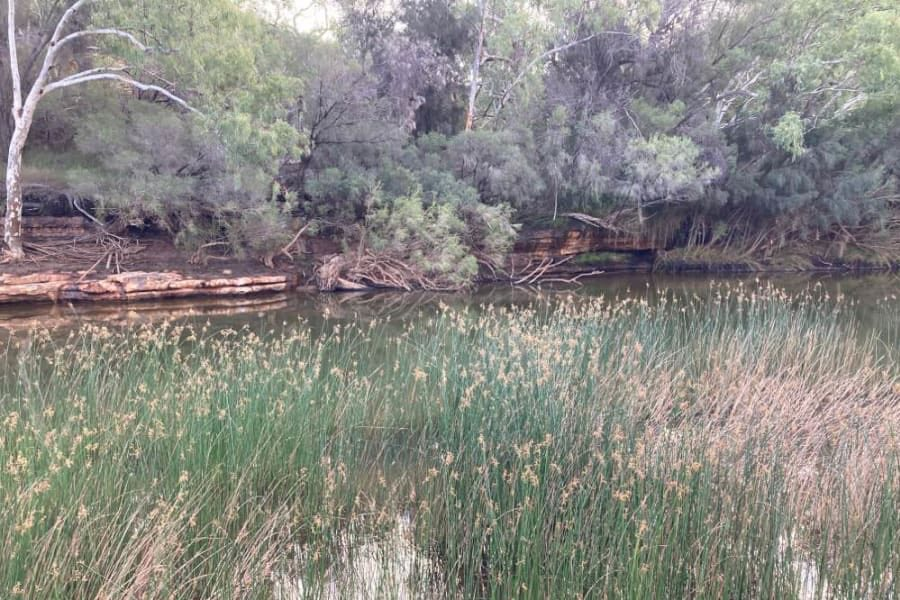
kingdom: Plantae
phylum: Tracheophyta
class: Liliopsida
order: Poales
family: Cyperaceae
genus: Schoenoplectus
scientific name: Schoenoplectus subulatus
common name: Coast club-rush
